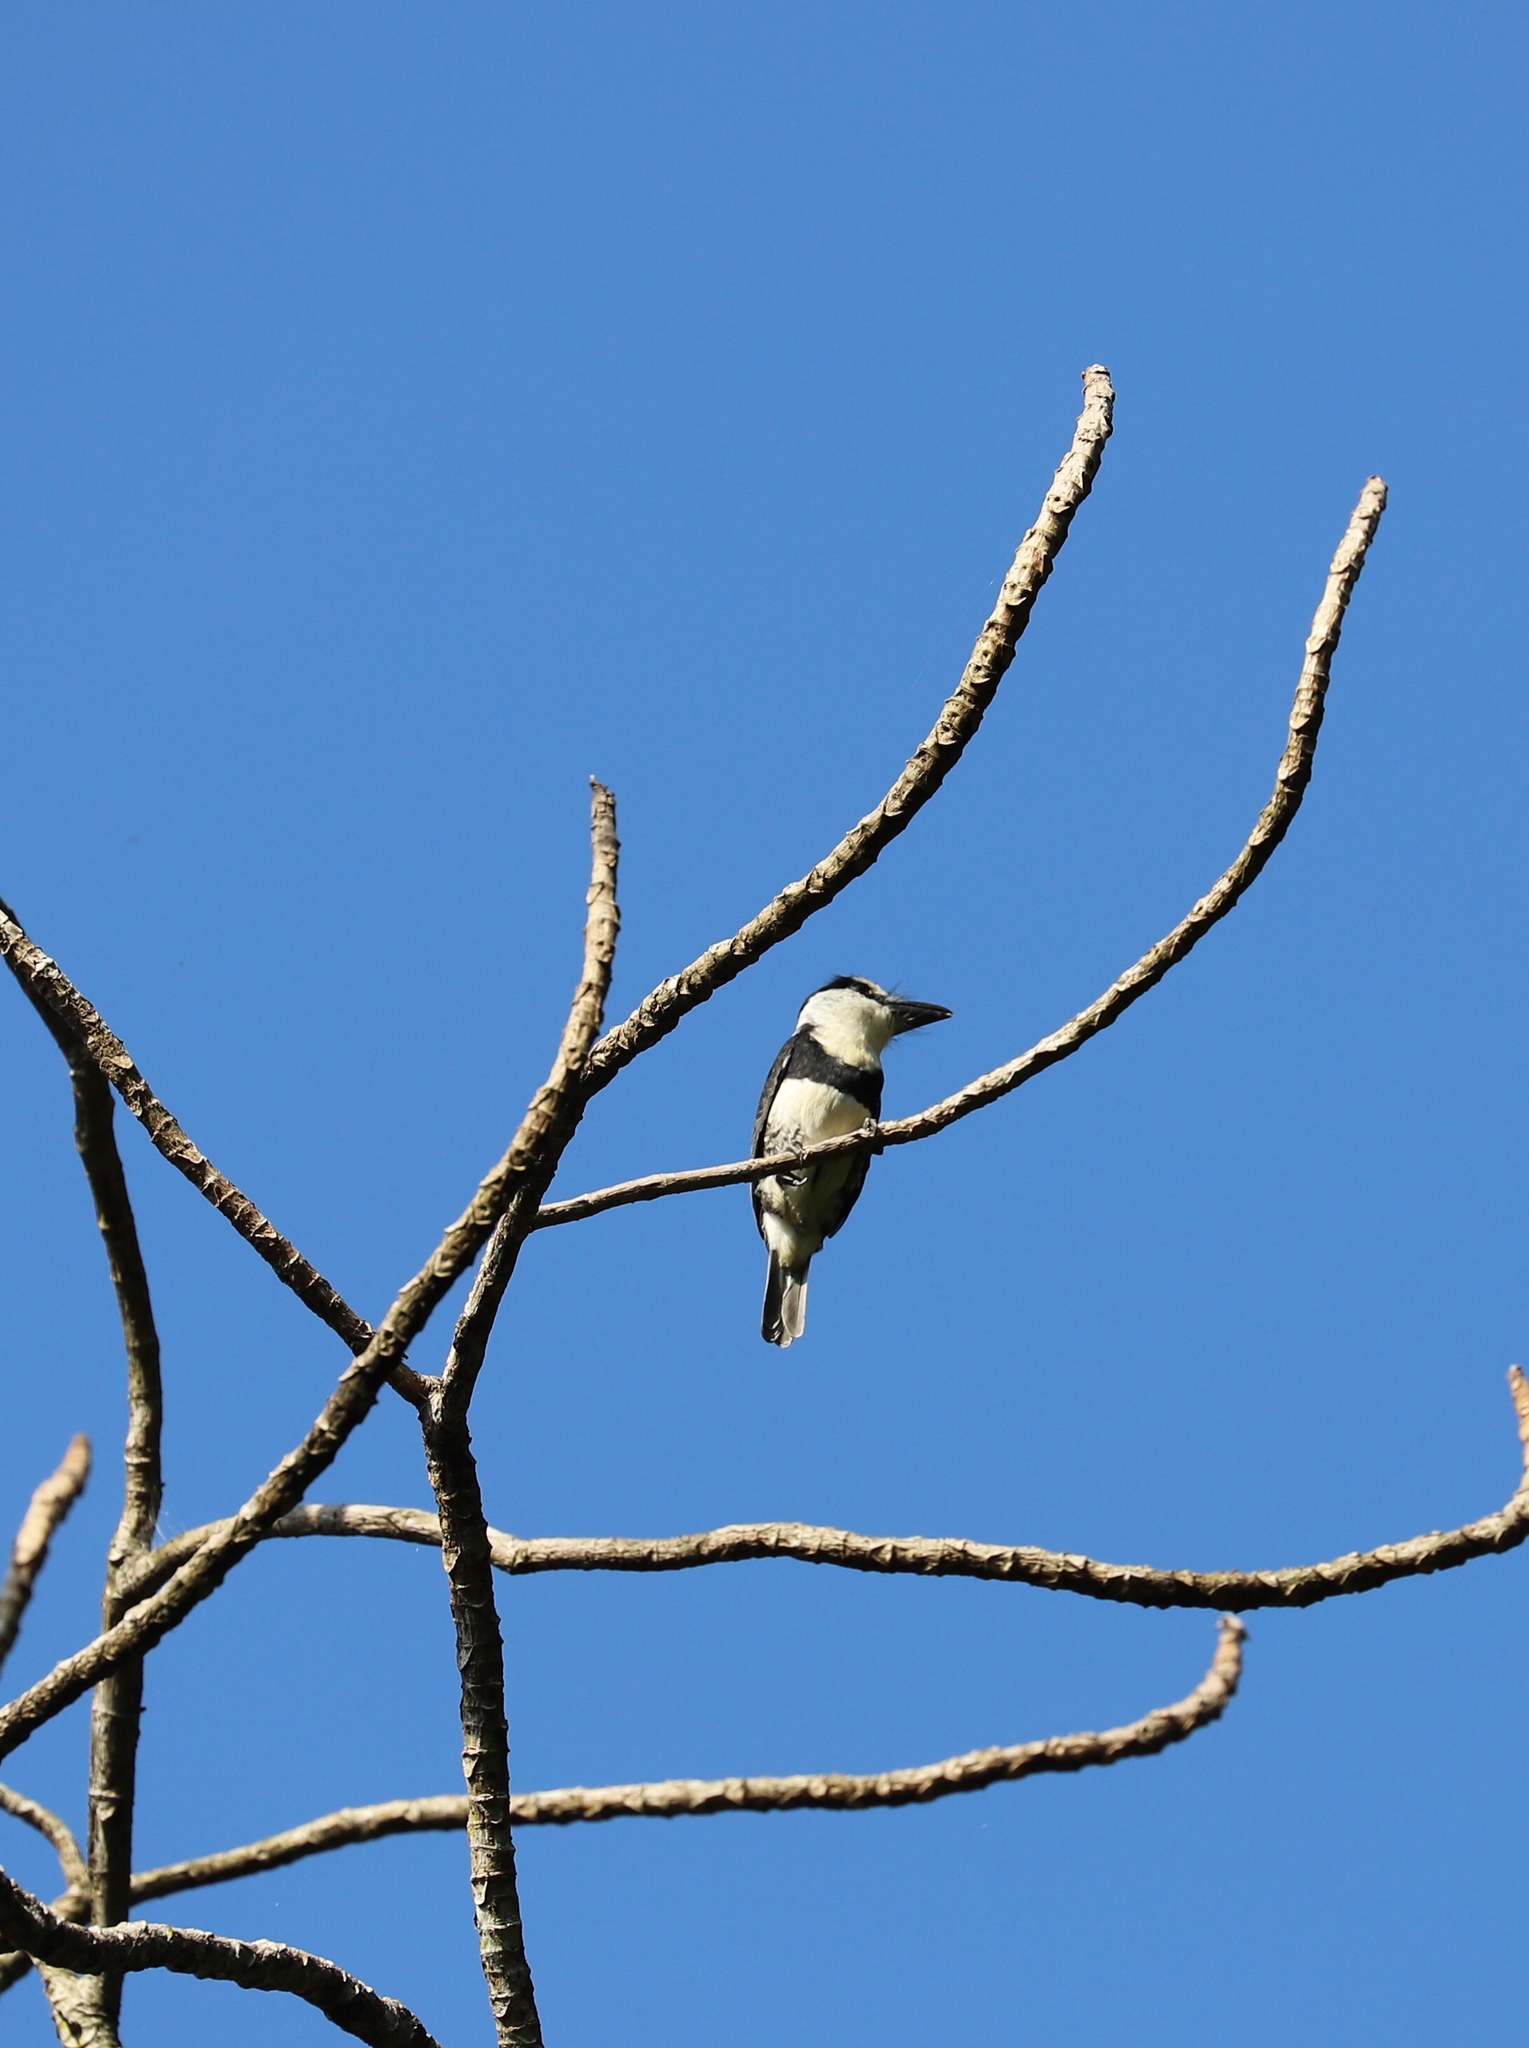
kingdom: Animalia
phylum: Chordata
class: Aves
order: Piciformes
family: Bucconidae
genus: Notharchus
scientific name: Notharchus hyperrhynchus
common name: White-necked puffbird
